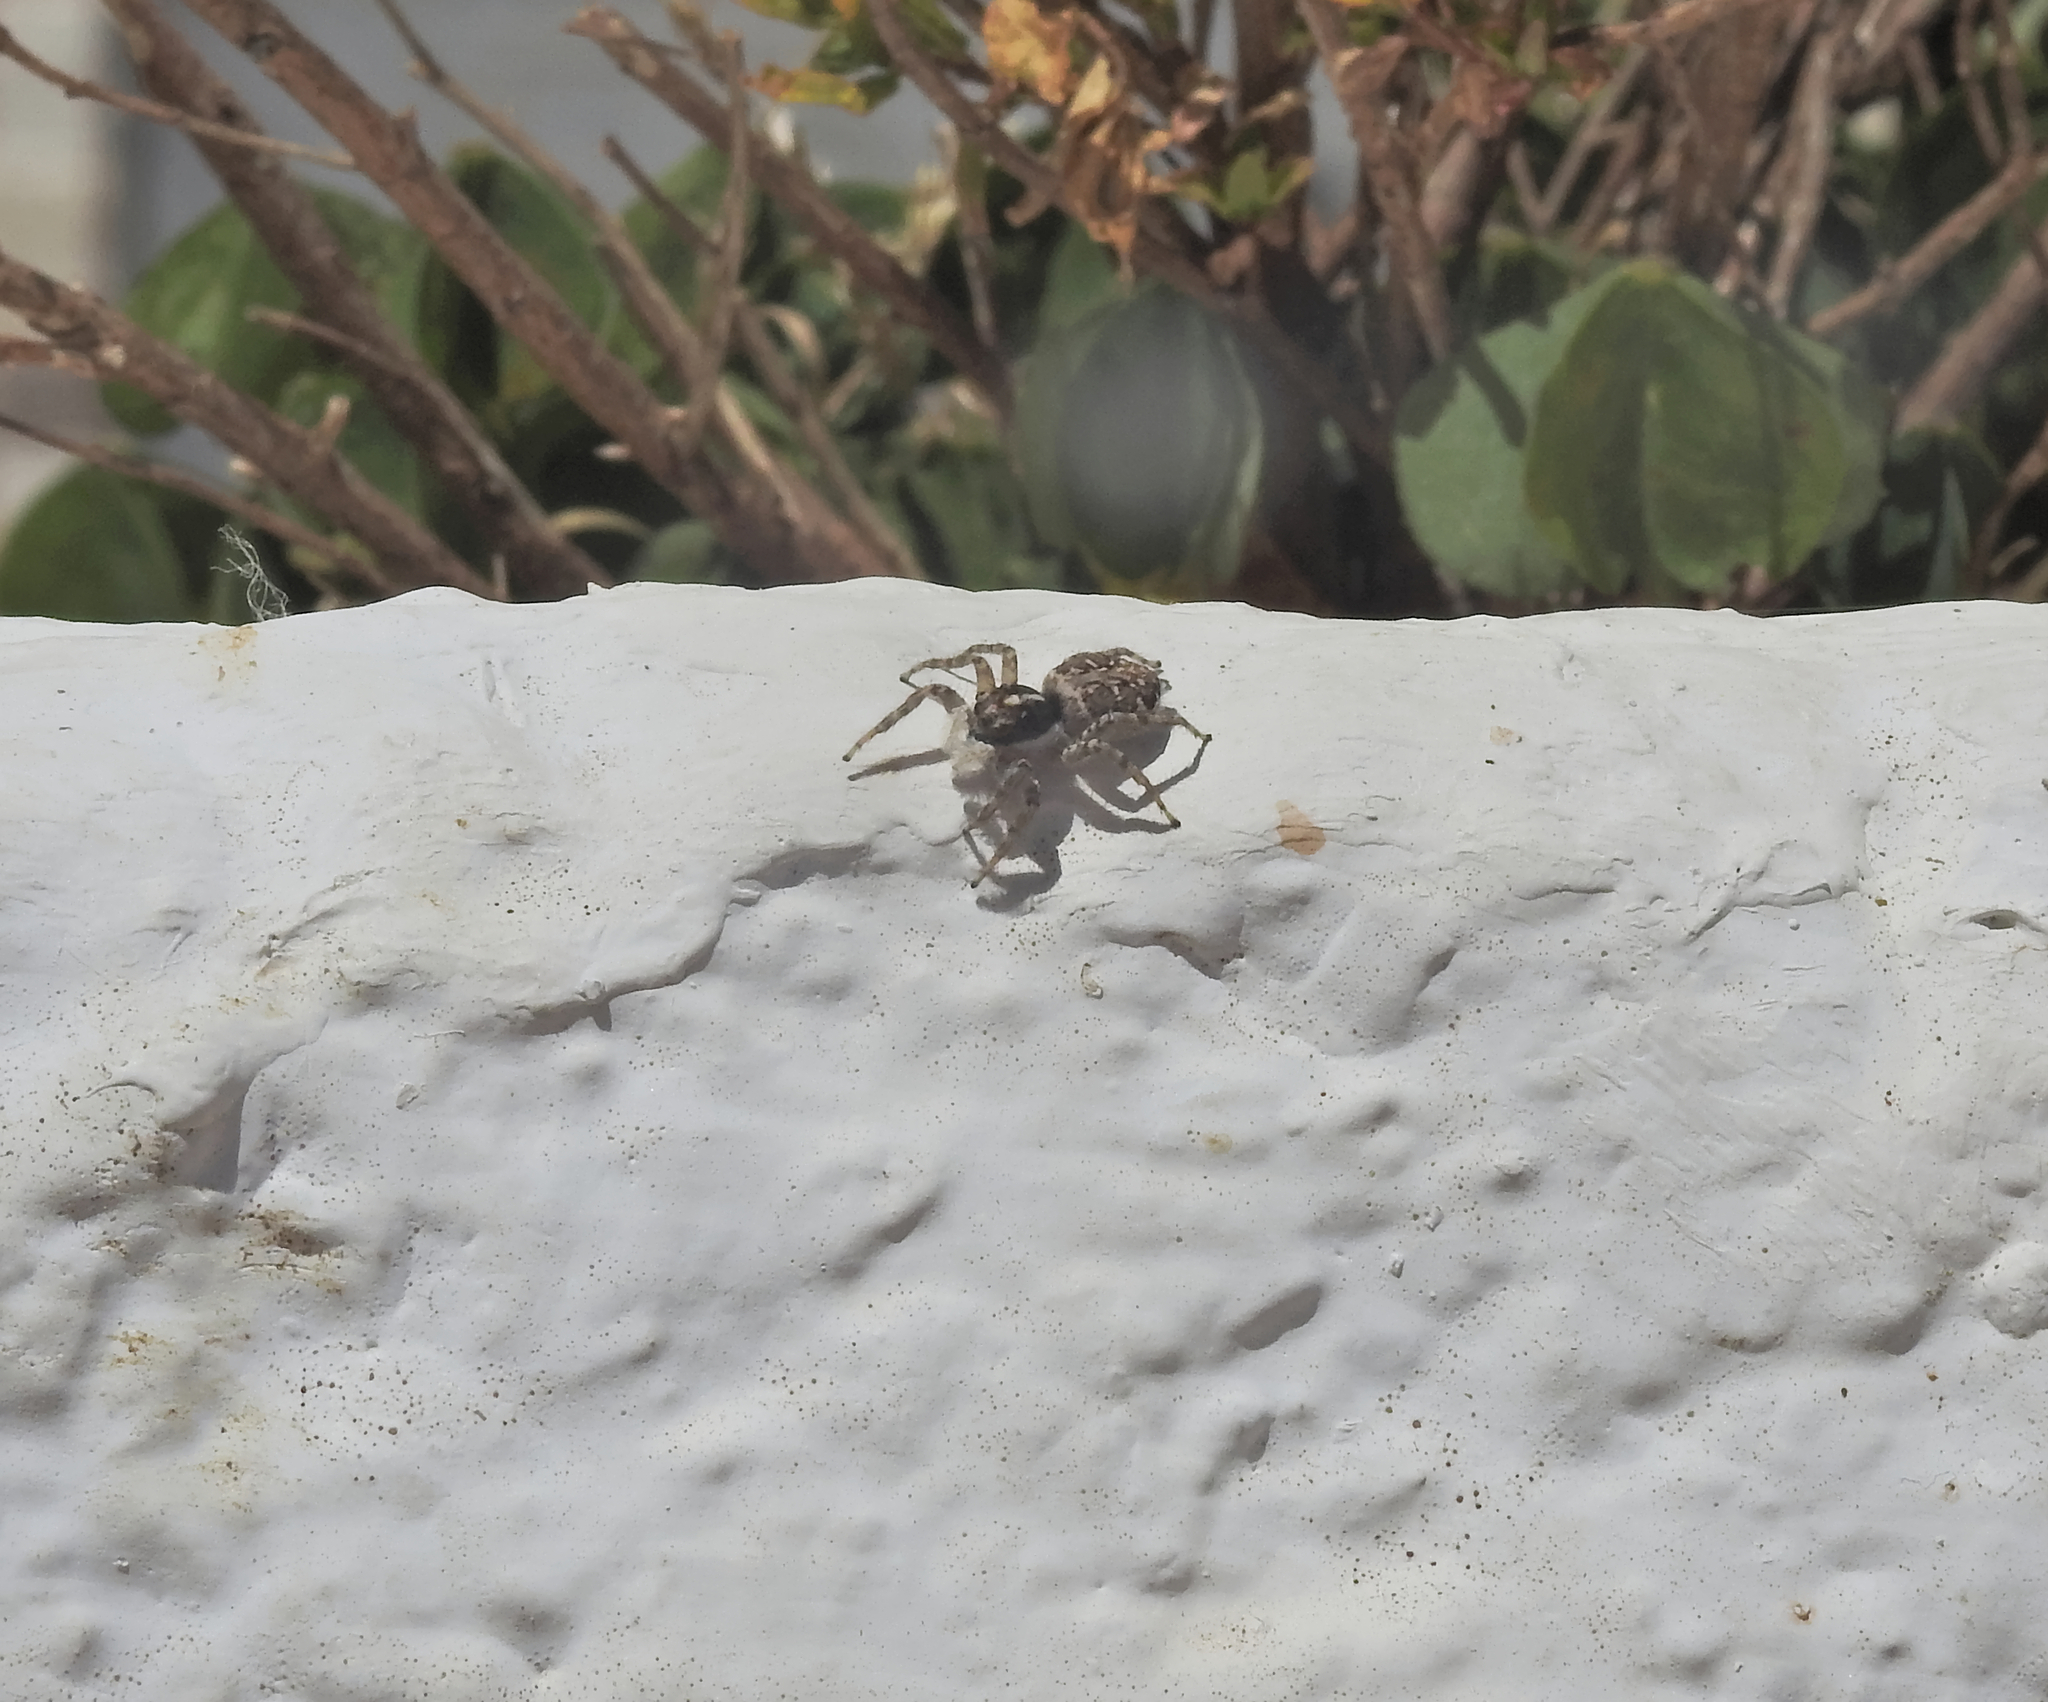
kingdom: Animalia
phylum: Arthropoda
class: Arachnida
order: Araneae
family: Salticidae
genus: Menemerus
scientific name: Menemerus semilimbatus
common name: Jumping spider
